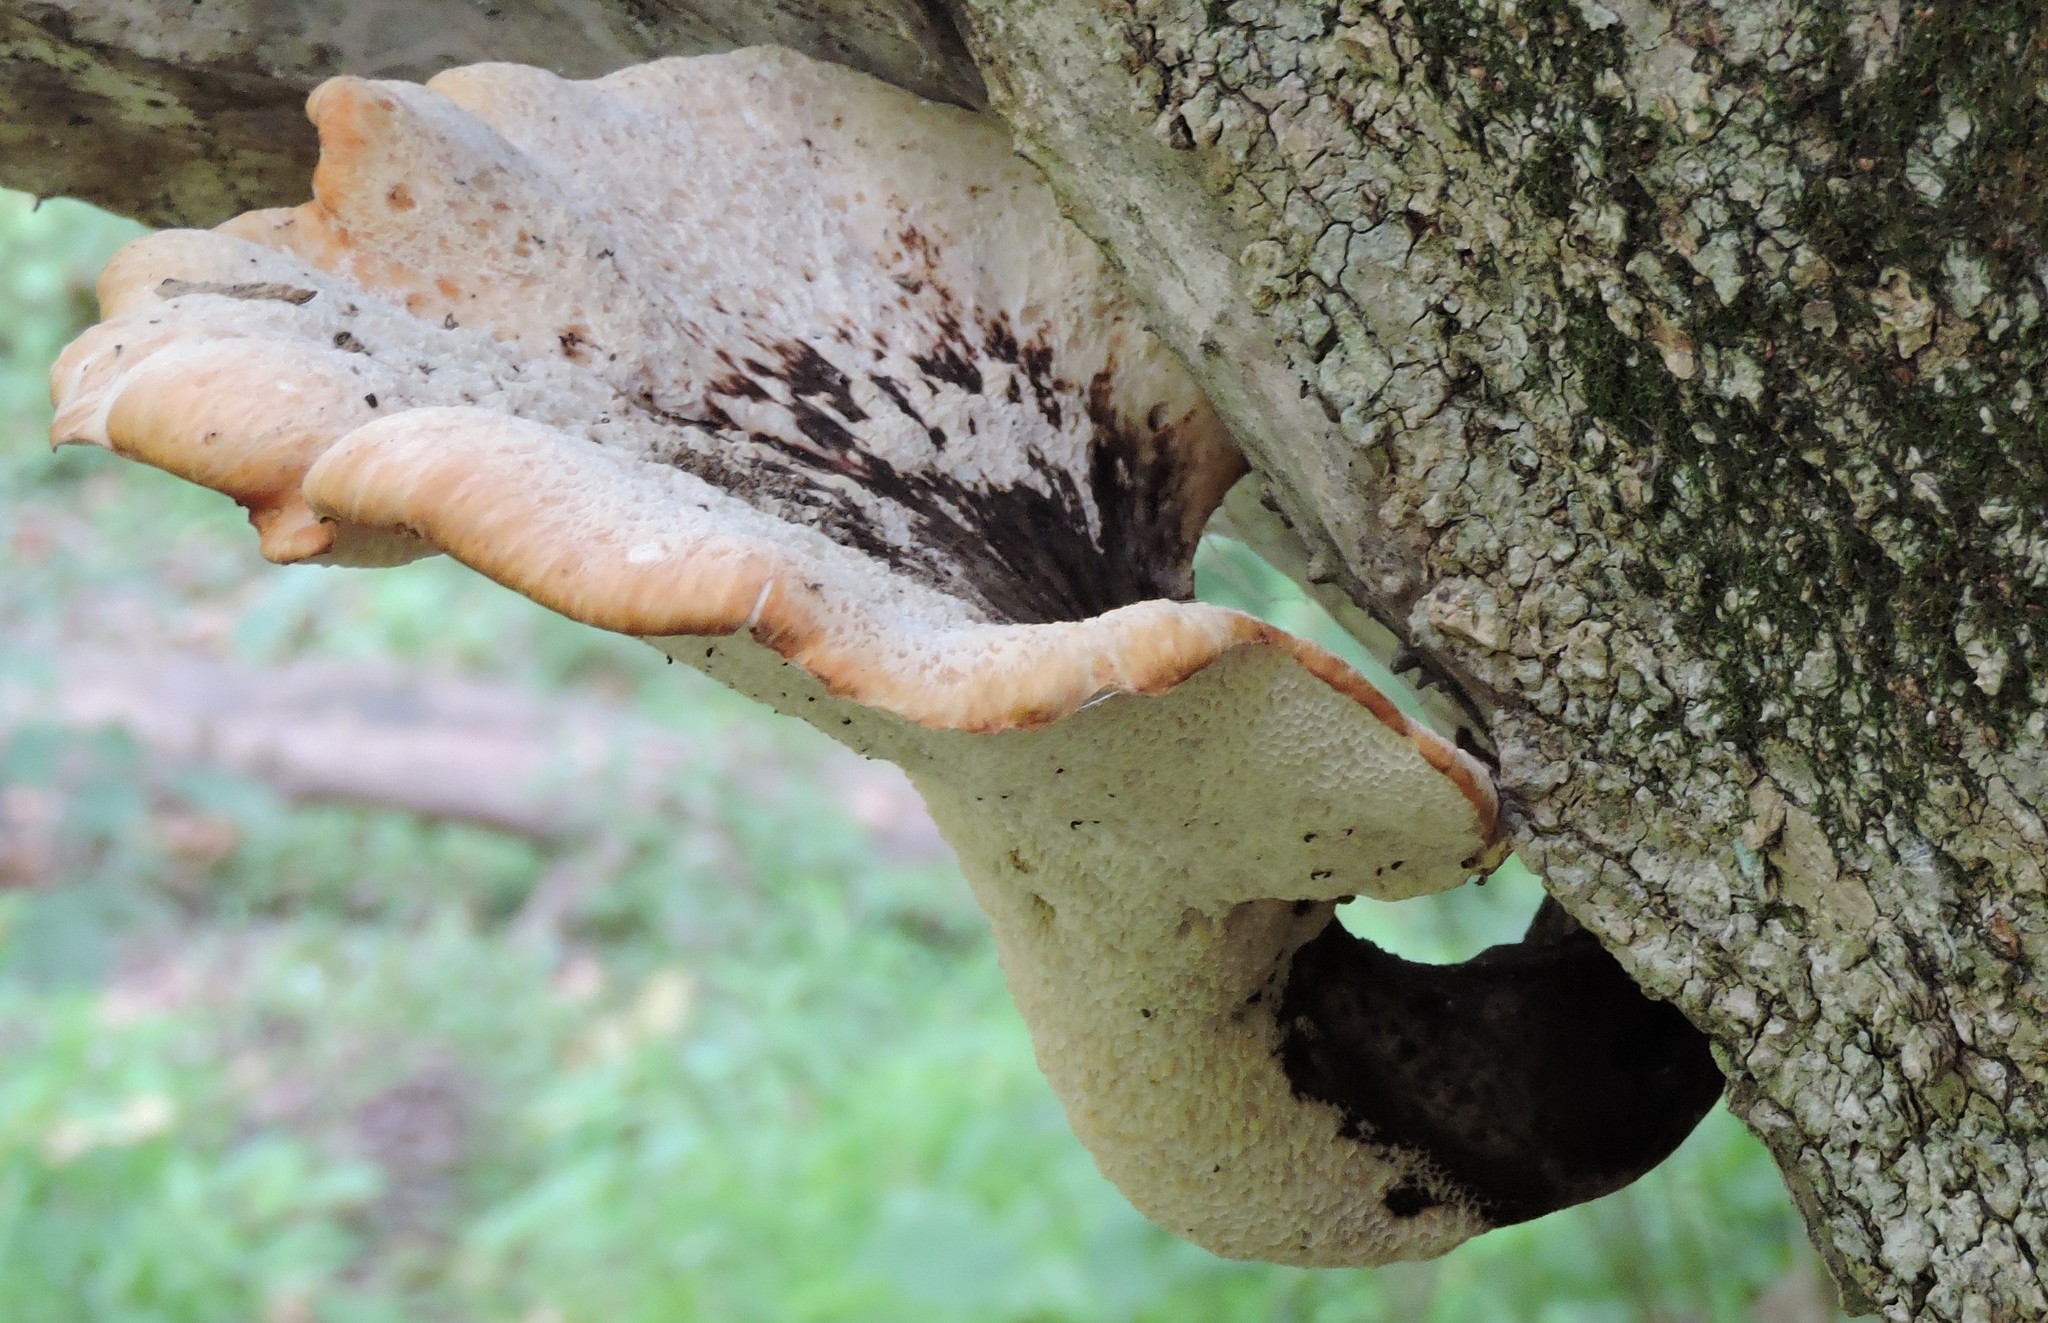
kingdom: Fungi
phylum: Basidiomycota
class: Agaricomycetes
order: Polyporales
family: Polyporaceae
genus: Cerioporus
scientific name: Cerioporus squamosus
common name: Dryad's saddle
